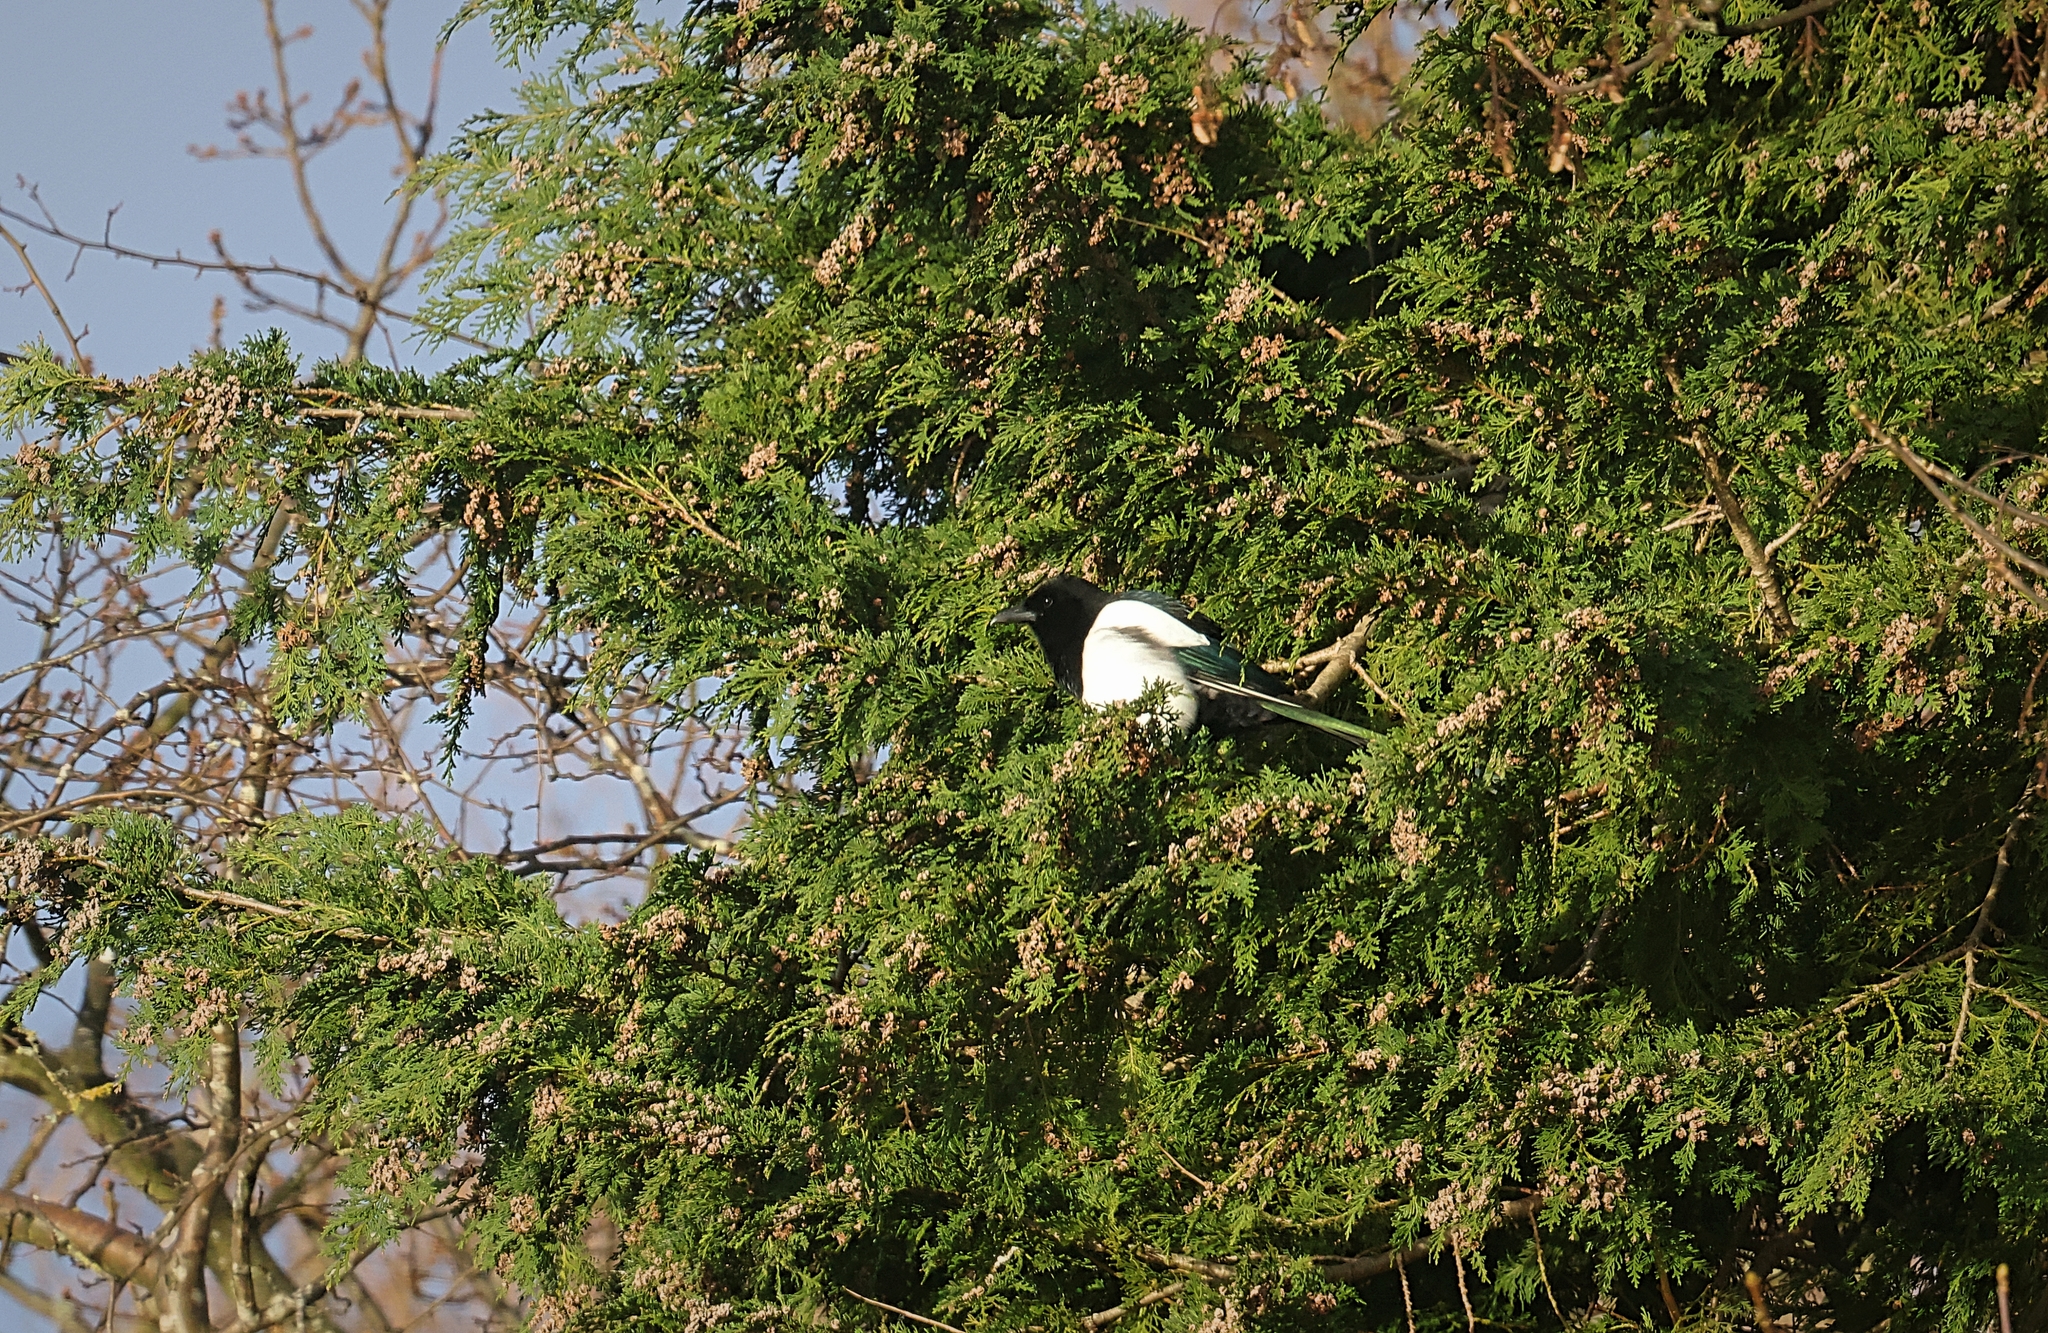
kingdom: Animalia
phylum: Chordata
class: Aves
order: Passeriformes
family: Corvidae
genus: Pica
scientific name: Pica pica
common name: Eurasian magpie
